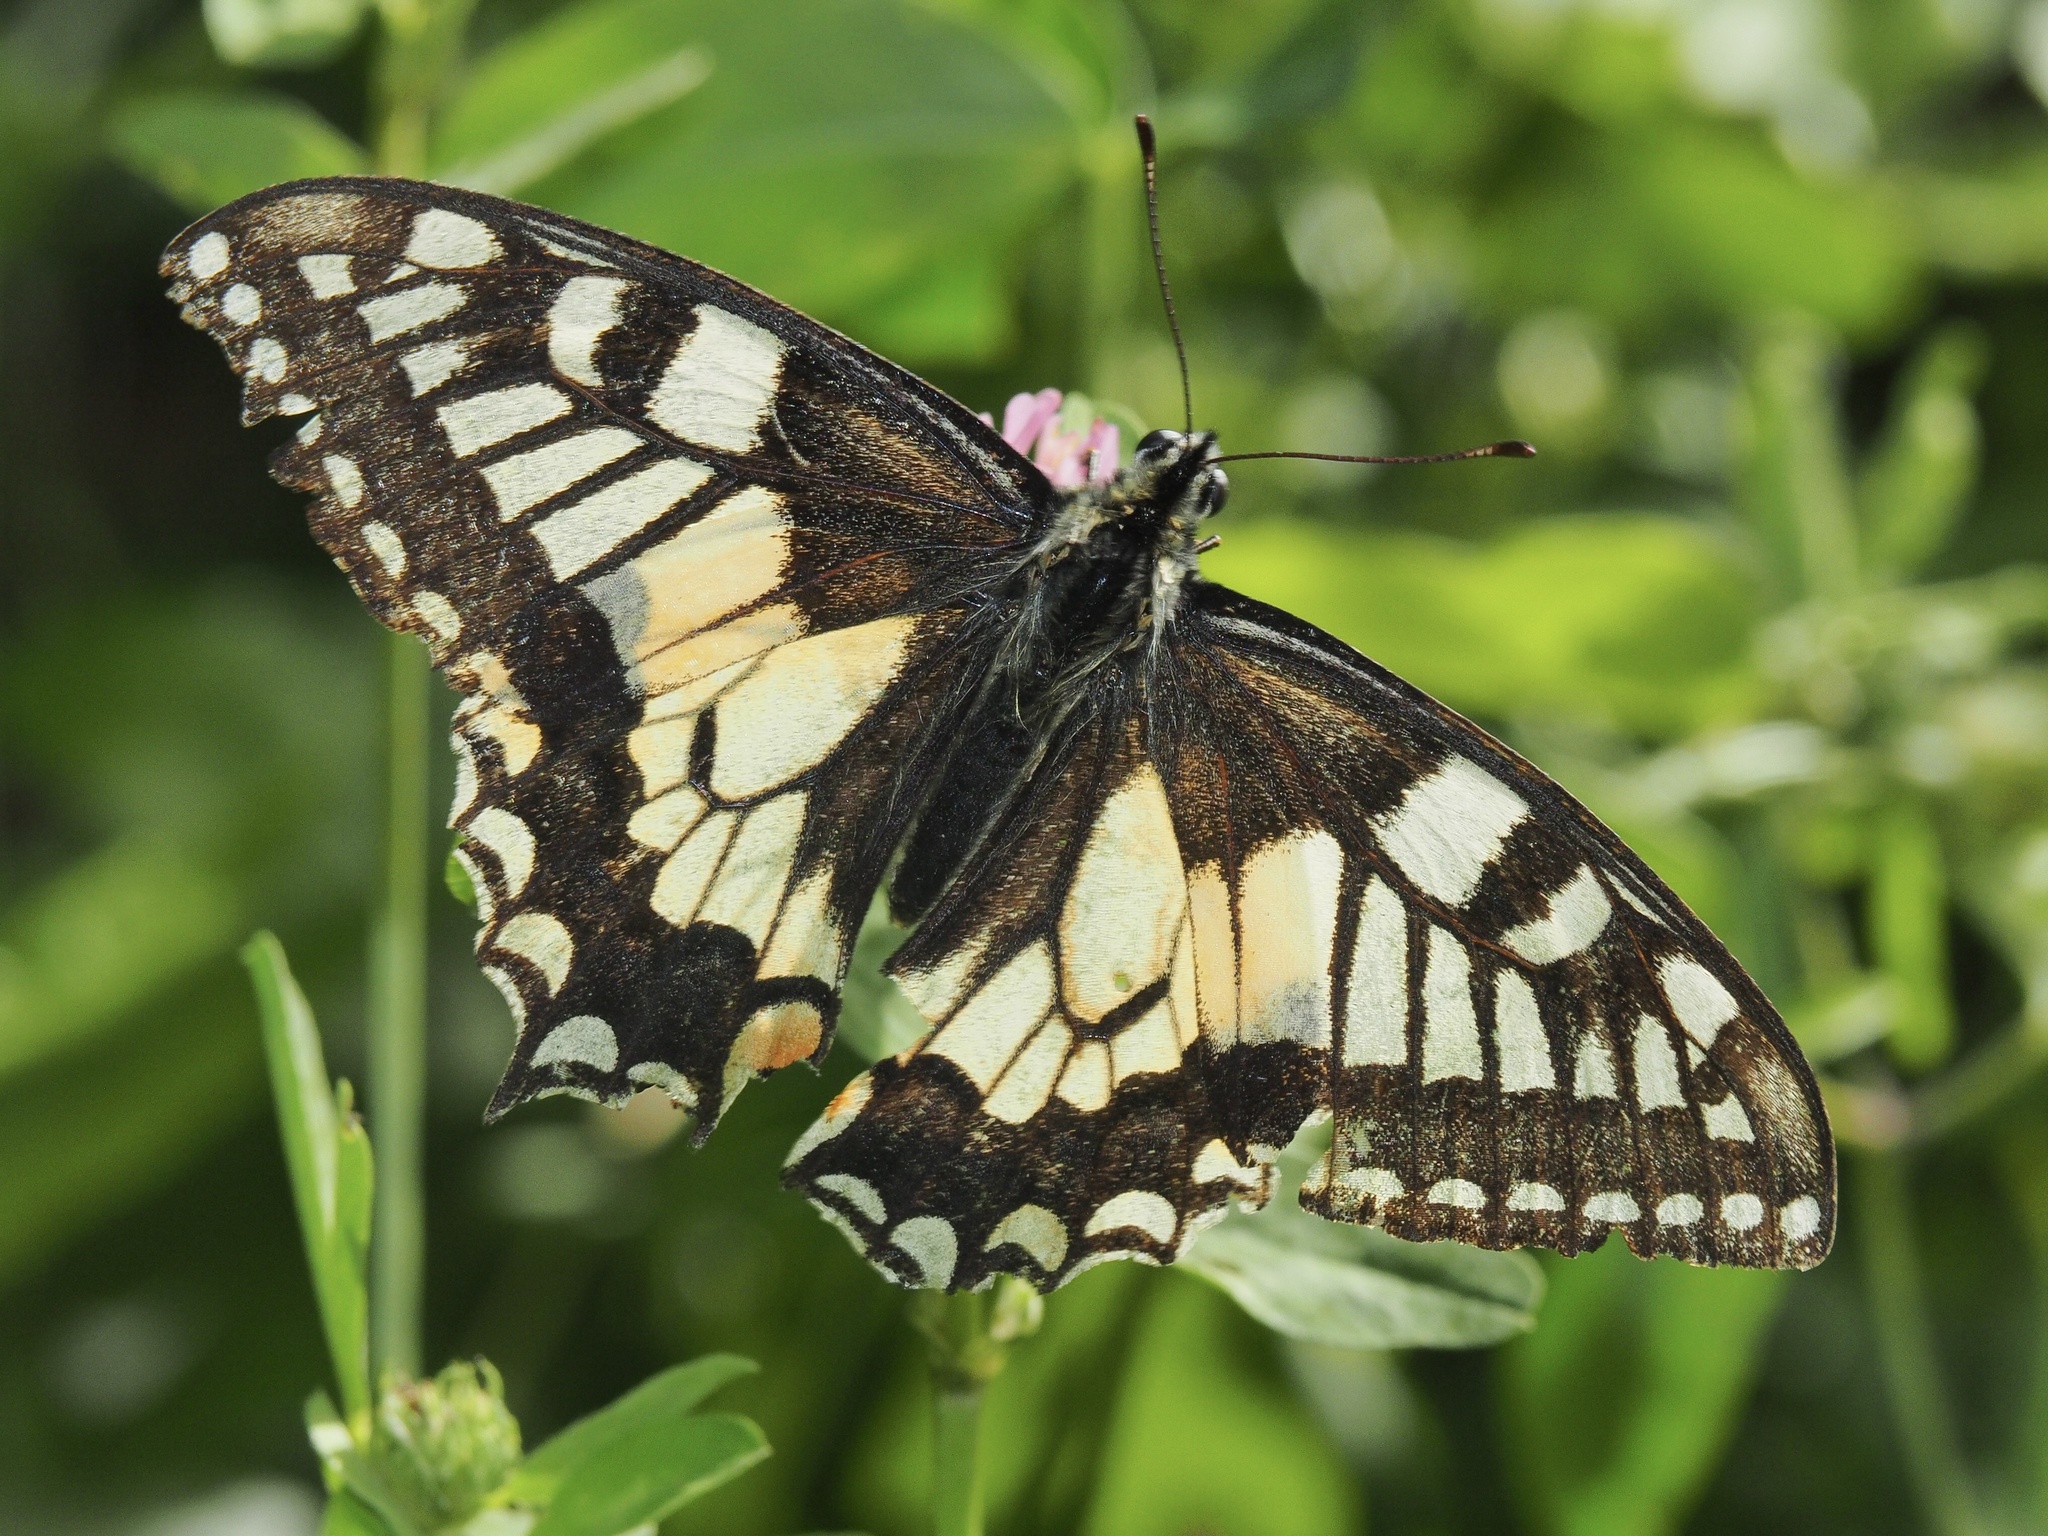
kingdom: Animalia
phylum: Arthropoda
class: Insecta
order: Lepidoptera
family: Papilionidae
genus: Papilio
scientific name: Papilio machaon
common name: Swallowtail
